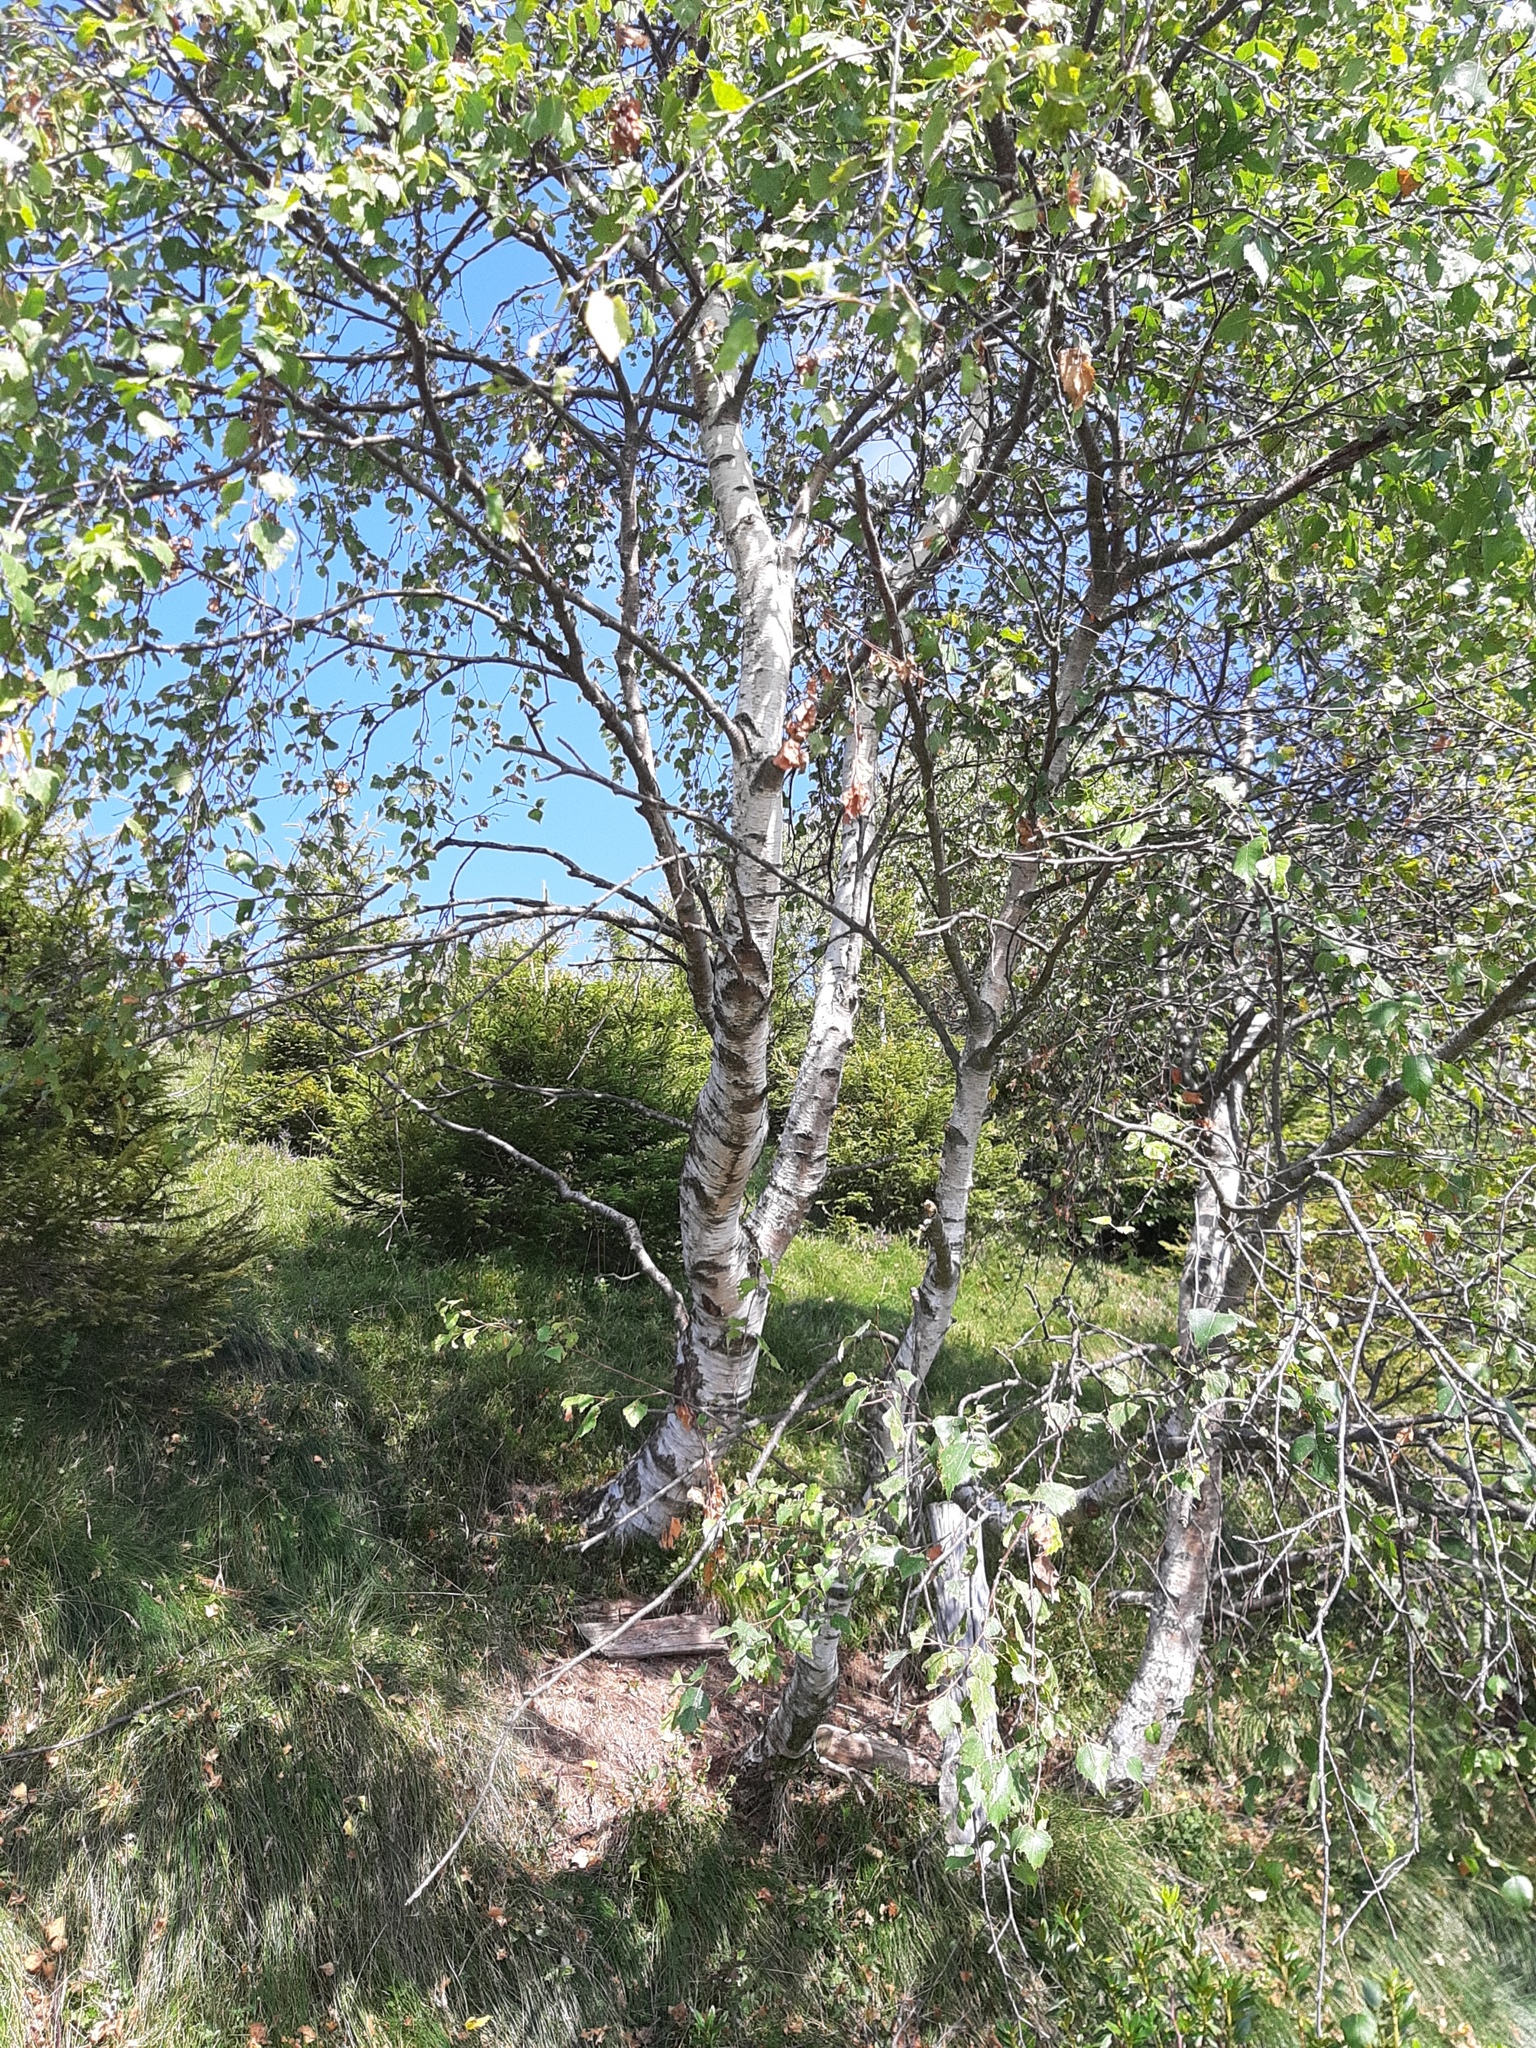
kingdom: Plantae
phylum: Tracheophyta
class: Magnoliopsida
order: Fagales
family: Betulaceae
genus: Betula
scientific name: Betula pendula
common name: Silver birch
